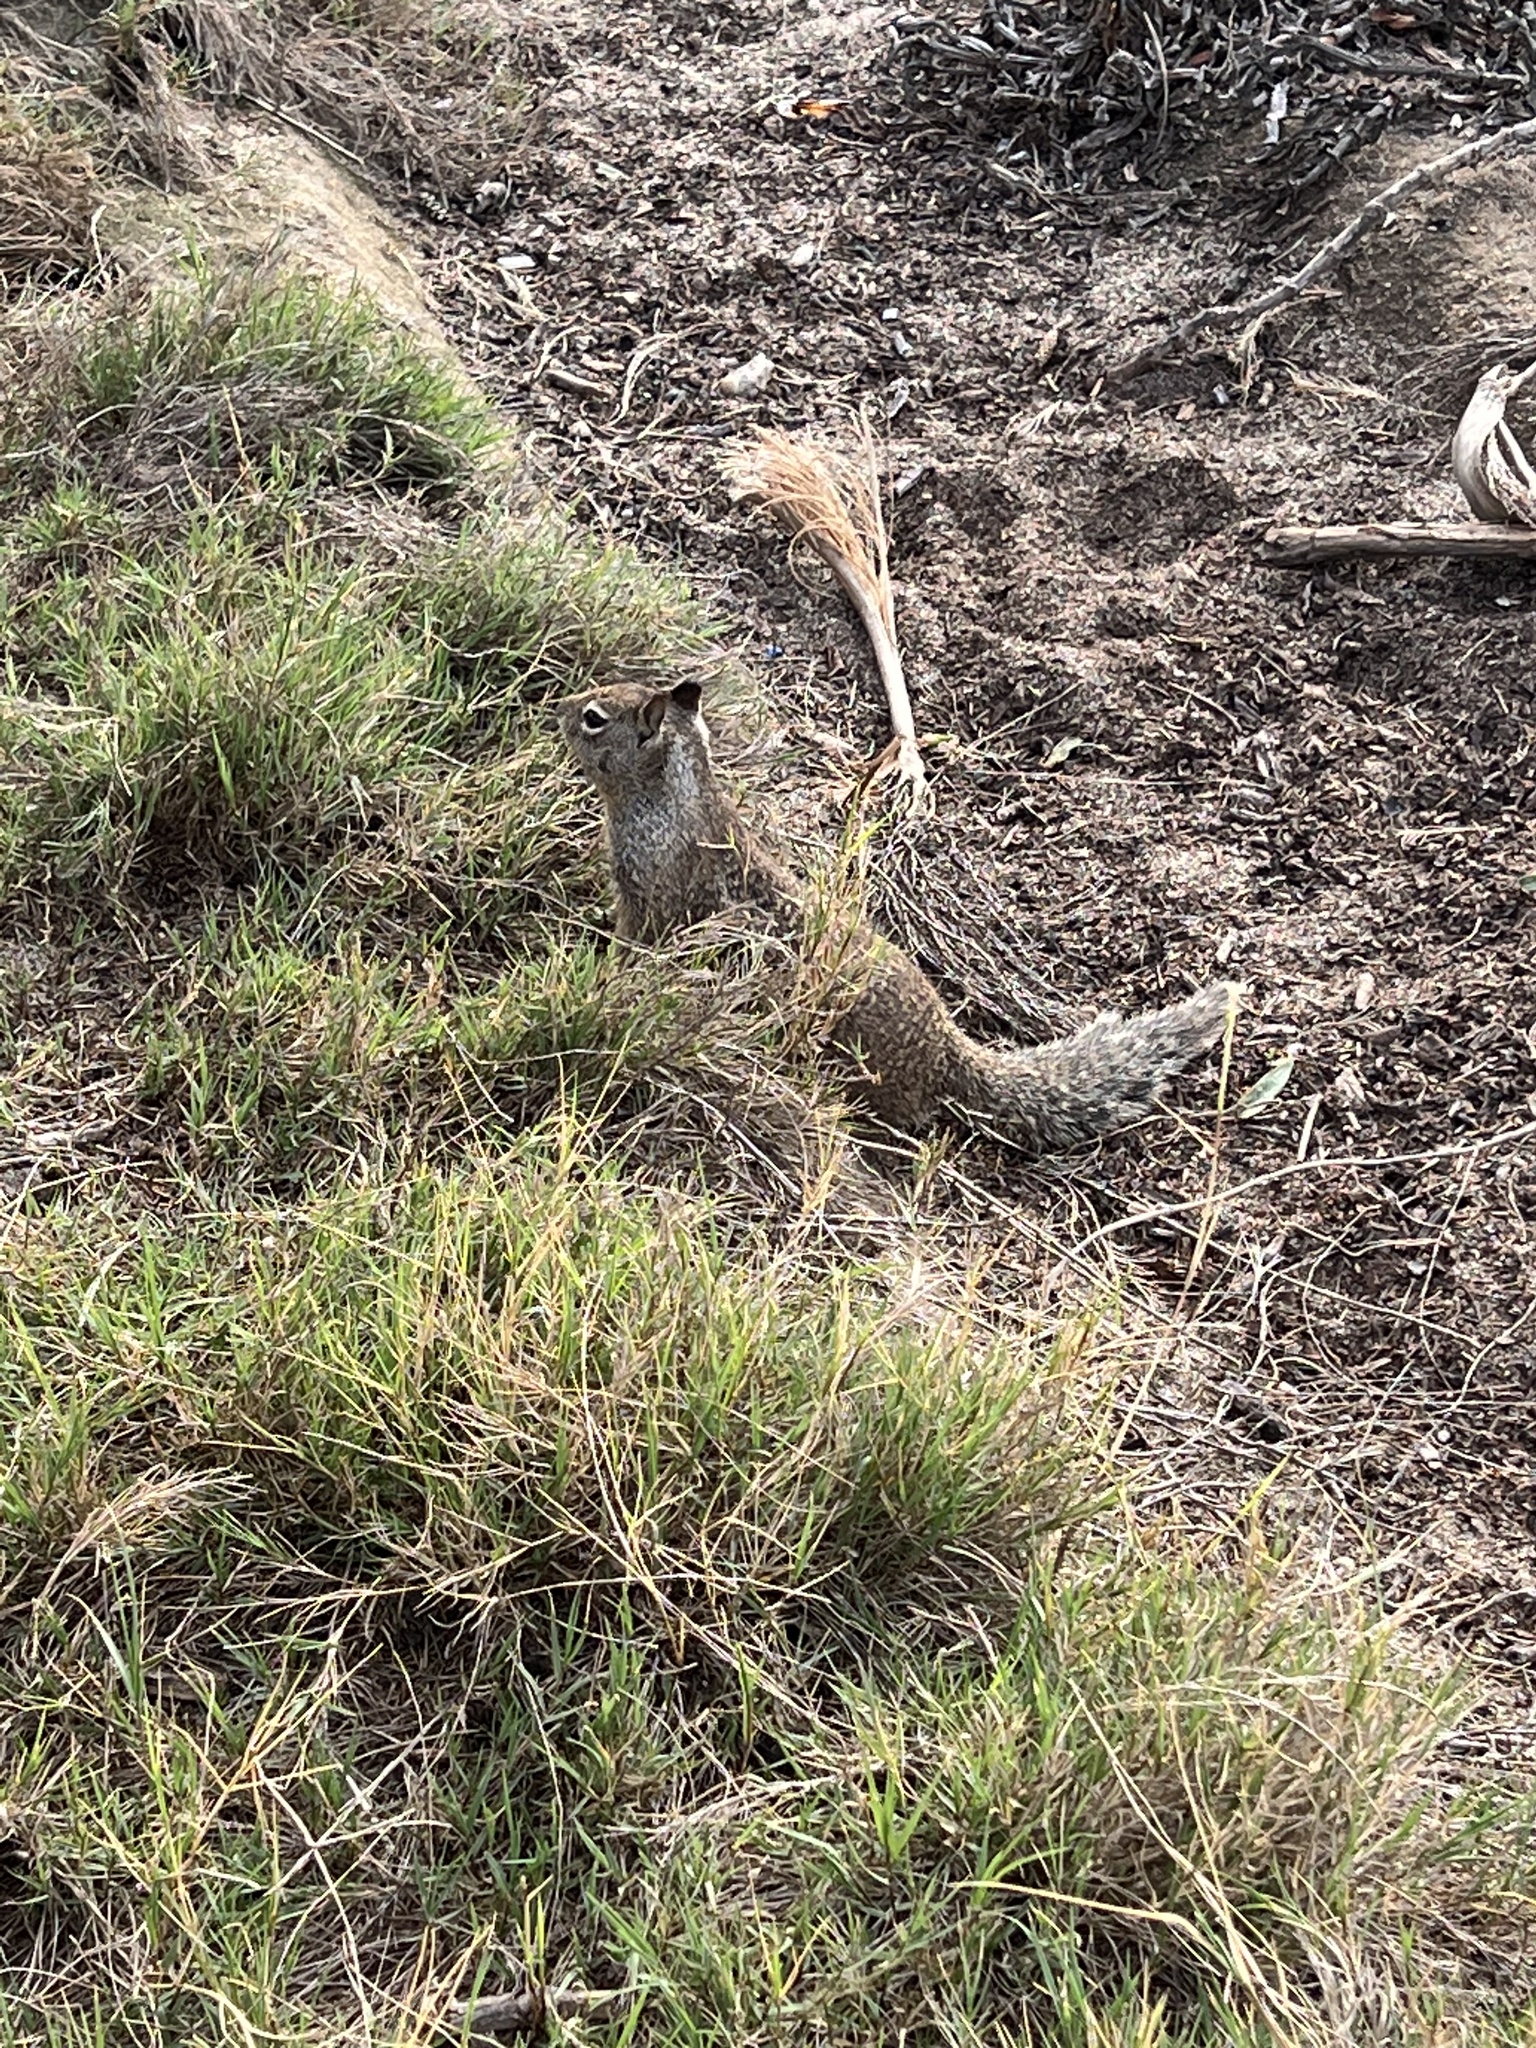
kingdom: Animalia
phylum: Chordata
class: Mammalia
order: Rodentia
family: Sciuridae
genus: Otospermophilus
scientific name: Otospermophilus beecheyi
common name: California ground squirrel
